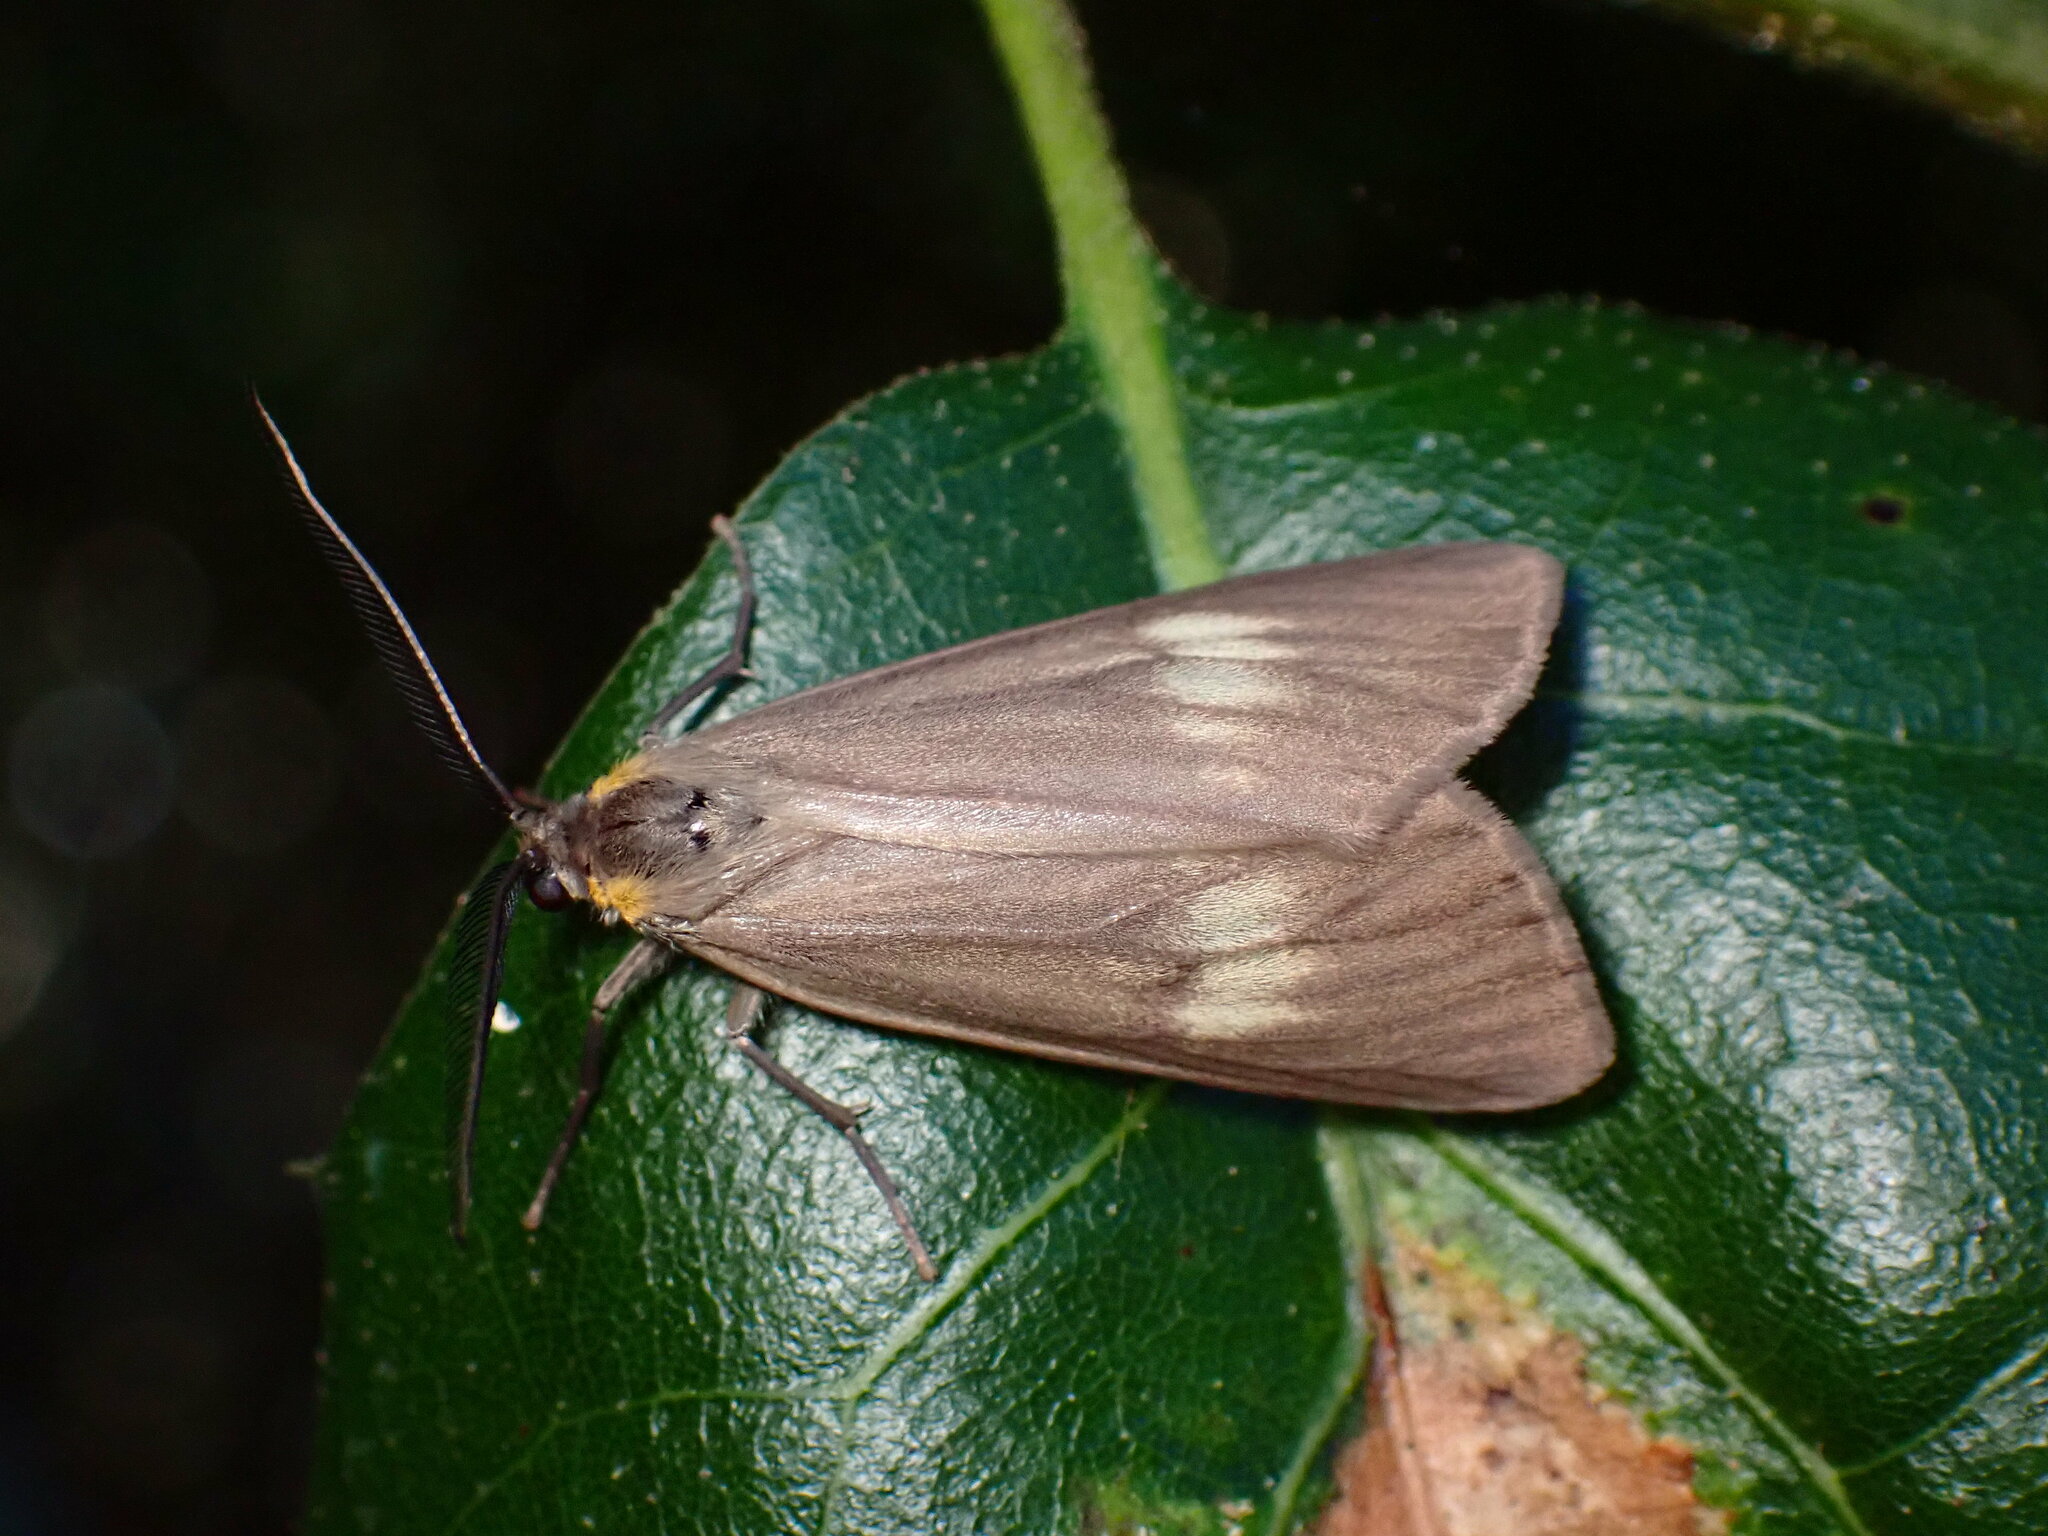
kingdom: Animalia
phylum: Arthropoda
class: Insecta
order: Lepidoptera
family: Notodontidae
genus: Phryganidia
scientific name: Phryganidia californica
